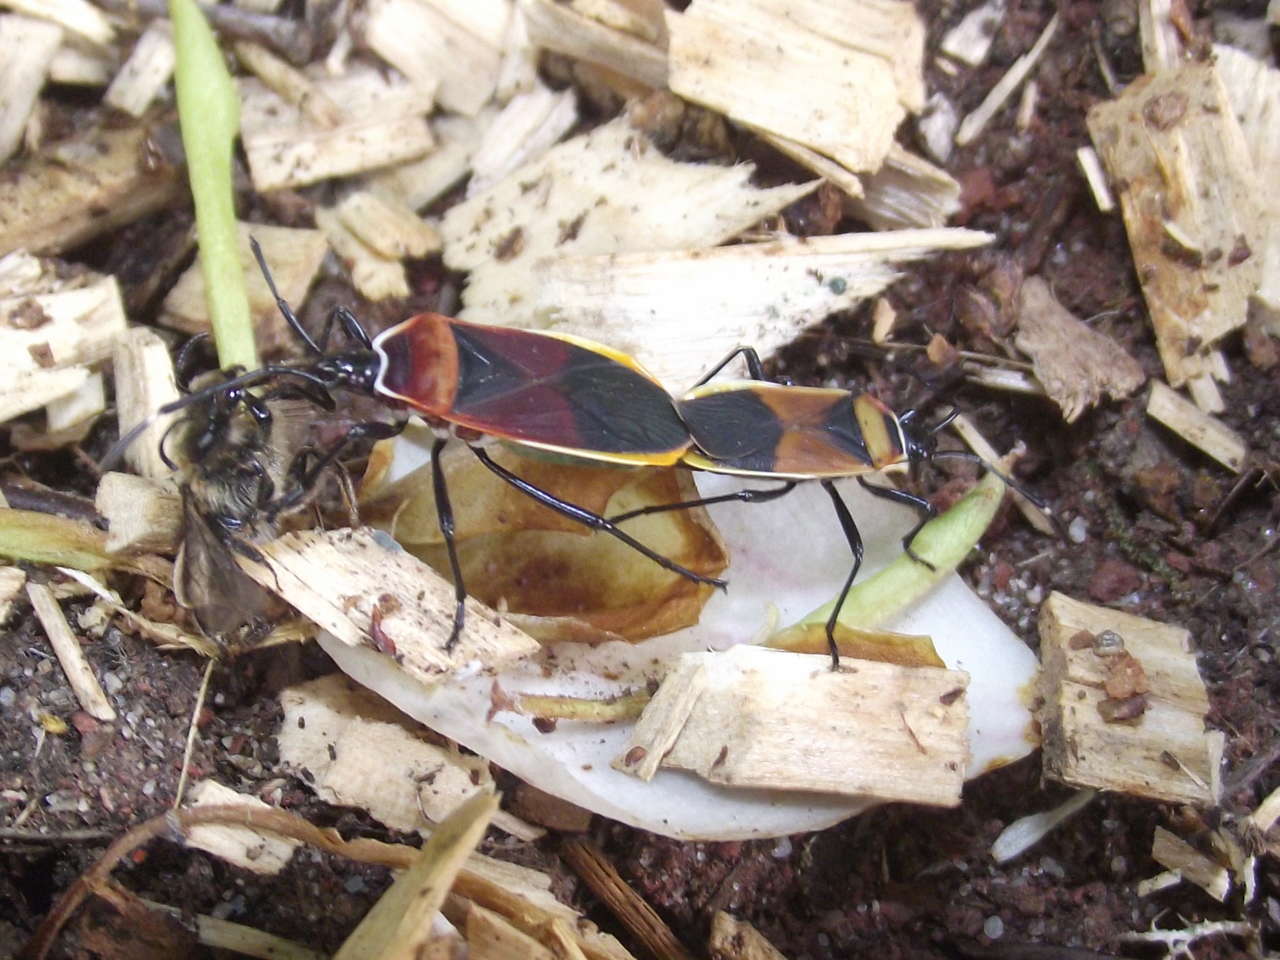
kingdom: Animalia
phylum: Arthropoda
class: Insecta
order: Hemiptera
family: Pyrrhocoridae
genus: Dindymus
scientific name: Dindymus
